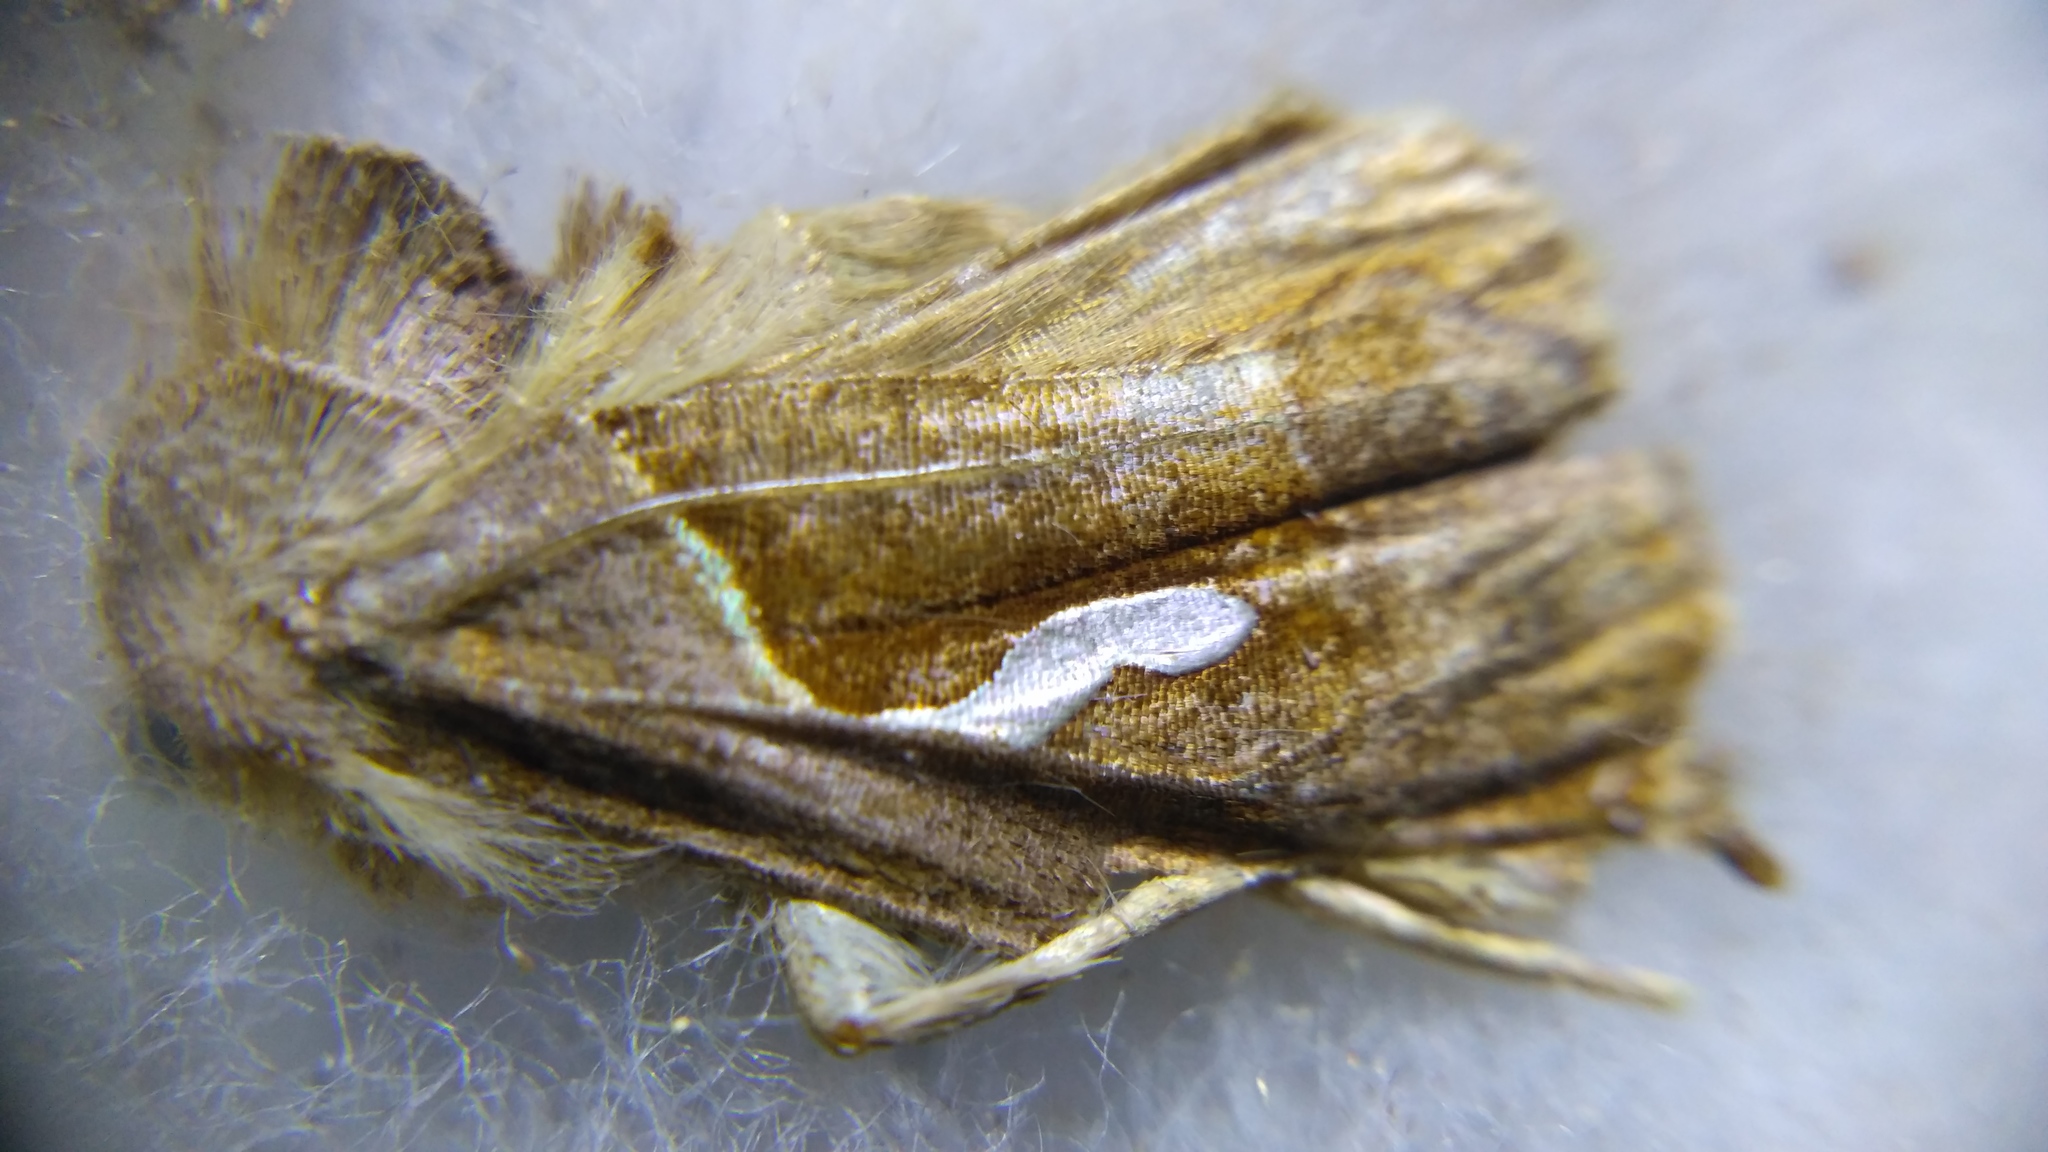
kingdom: Animalia
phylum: Arthropoda
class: Insecta
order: Lepidoptera
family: Noctuidae
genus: Macdunnoughia
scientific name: Macdunnoughia confusa
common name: Dewick's plusia
